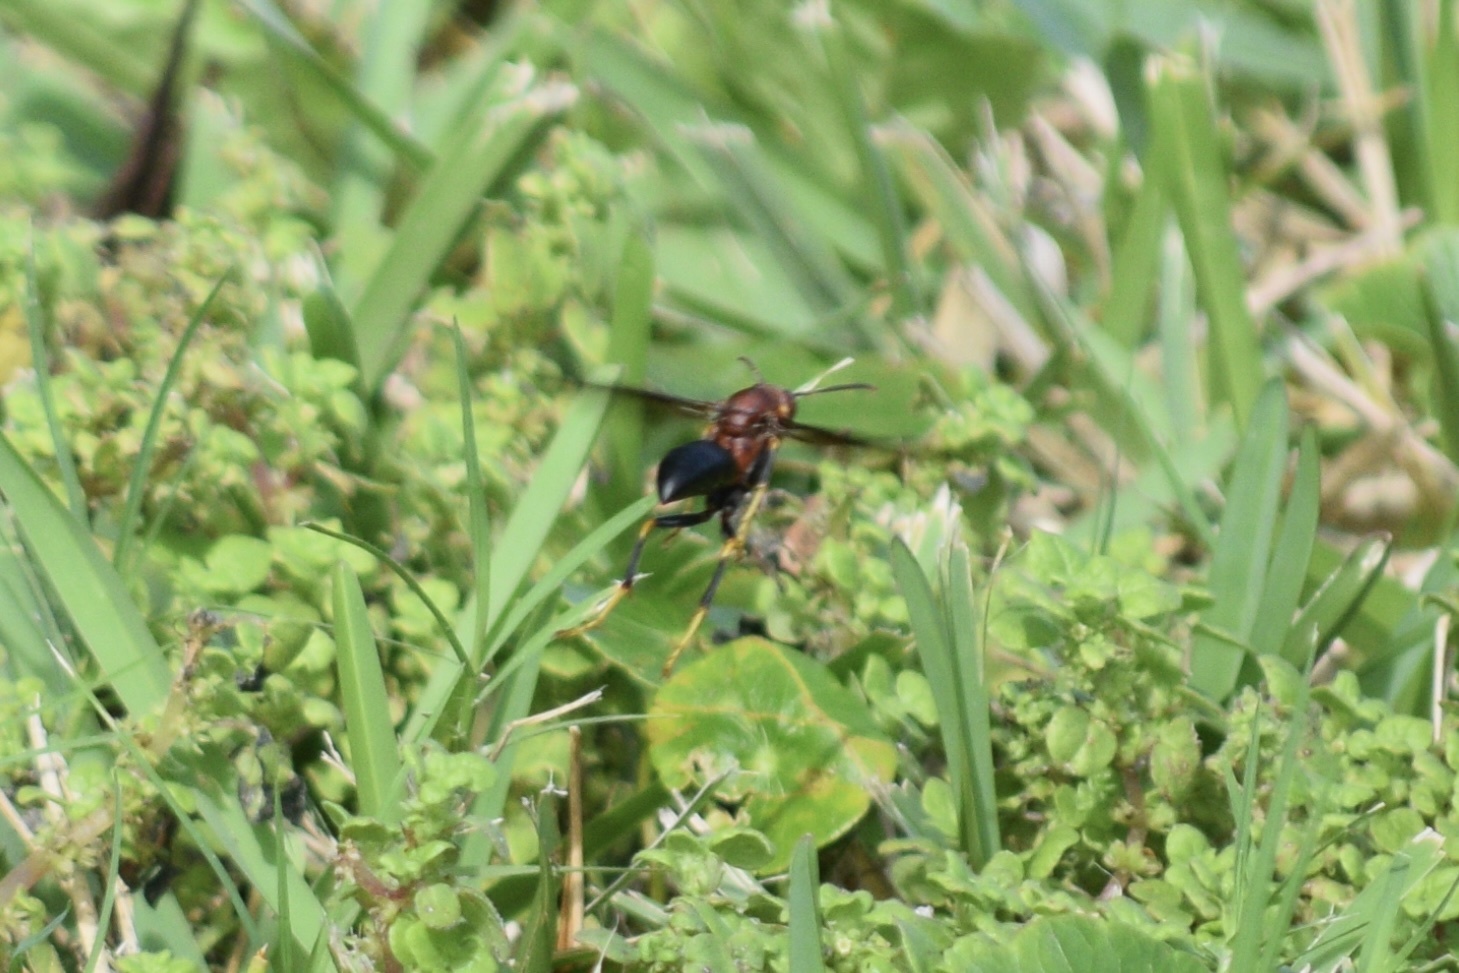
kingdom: Animalia
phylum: Arthropoda
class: Insecta
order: Hymenoptera
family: Eumenidae
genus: Polistes
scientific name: Polistes metricus
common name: Metric paper wasp
